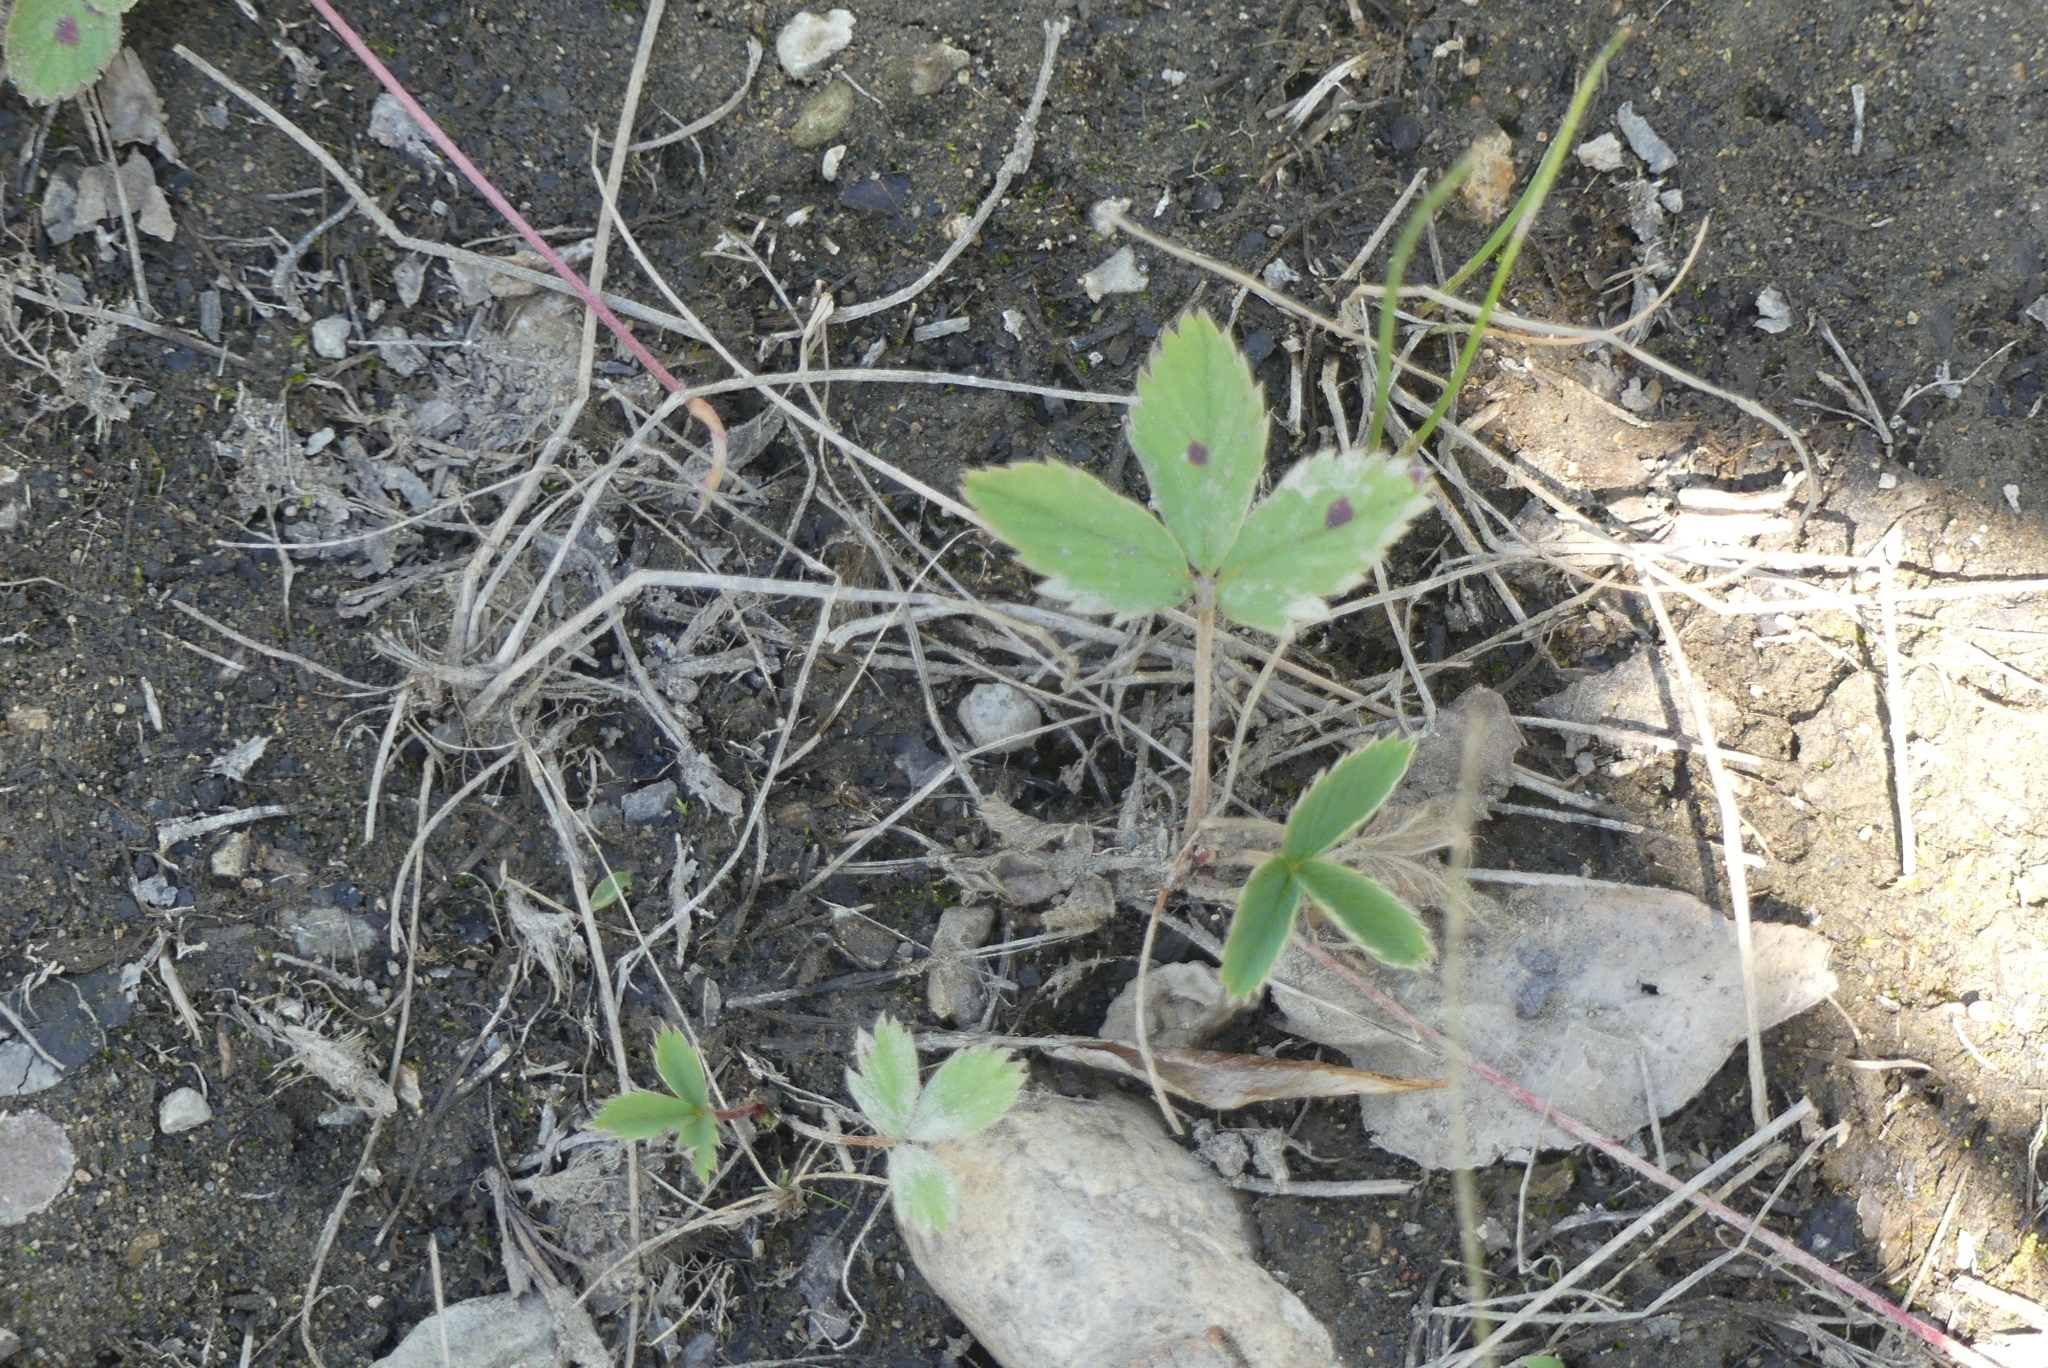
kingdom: Plantae
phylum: Tracheophyta
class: Magnoliopsida
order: Rosales
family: Rosaceae
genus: Fragaria
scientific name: Fragaria virginiana
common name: Thickleaved wild strawberry
